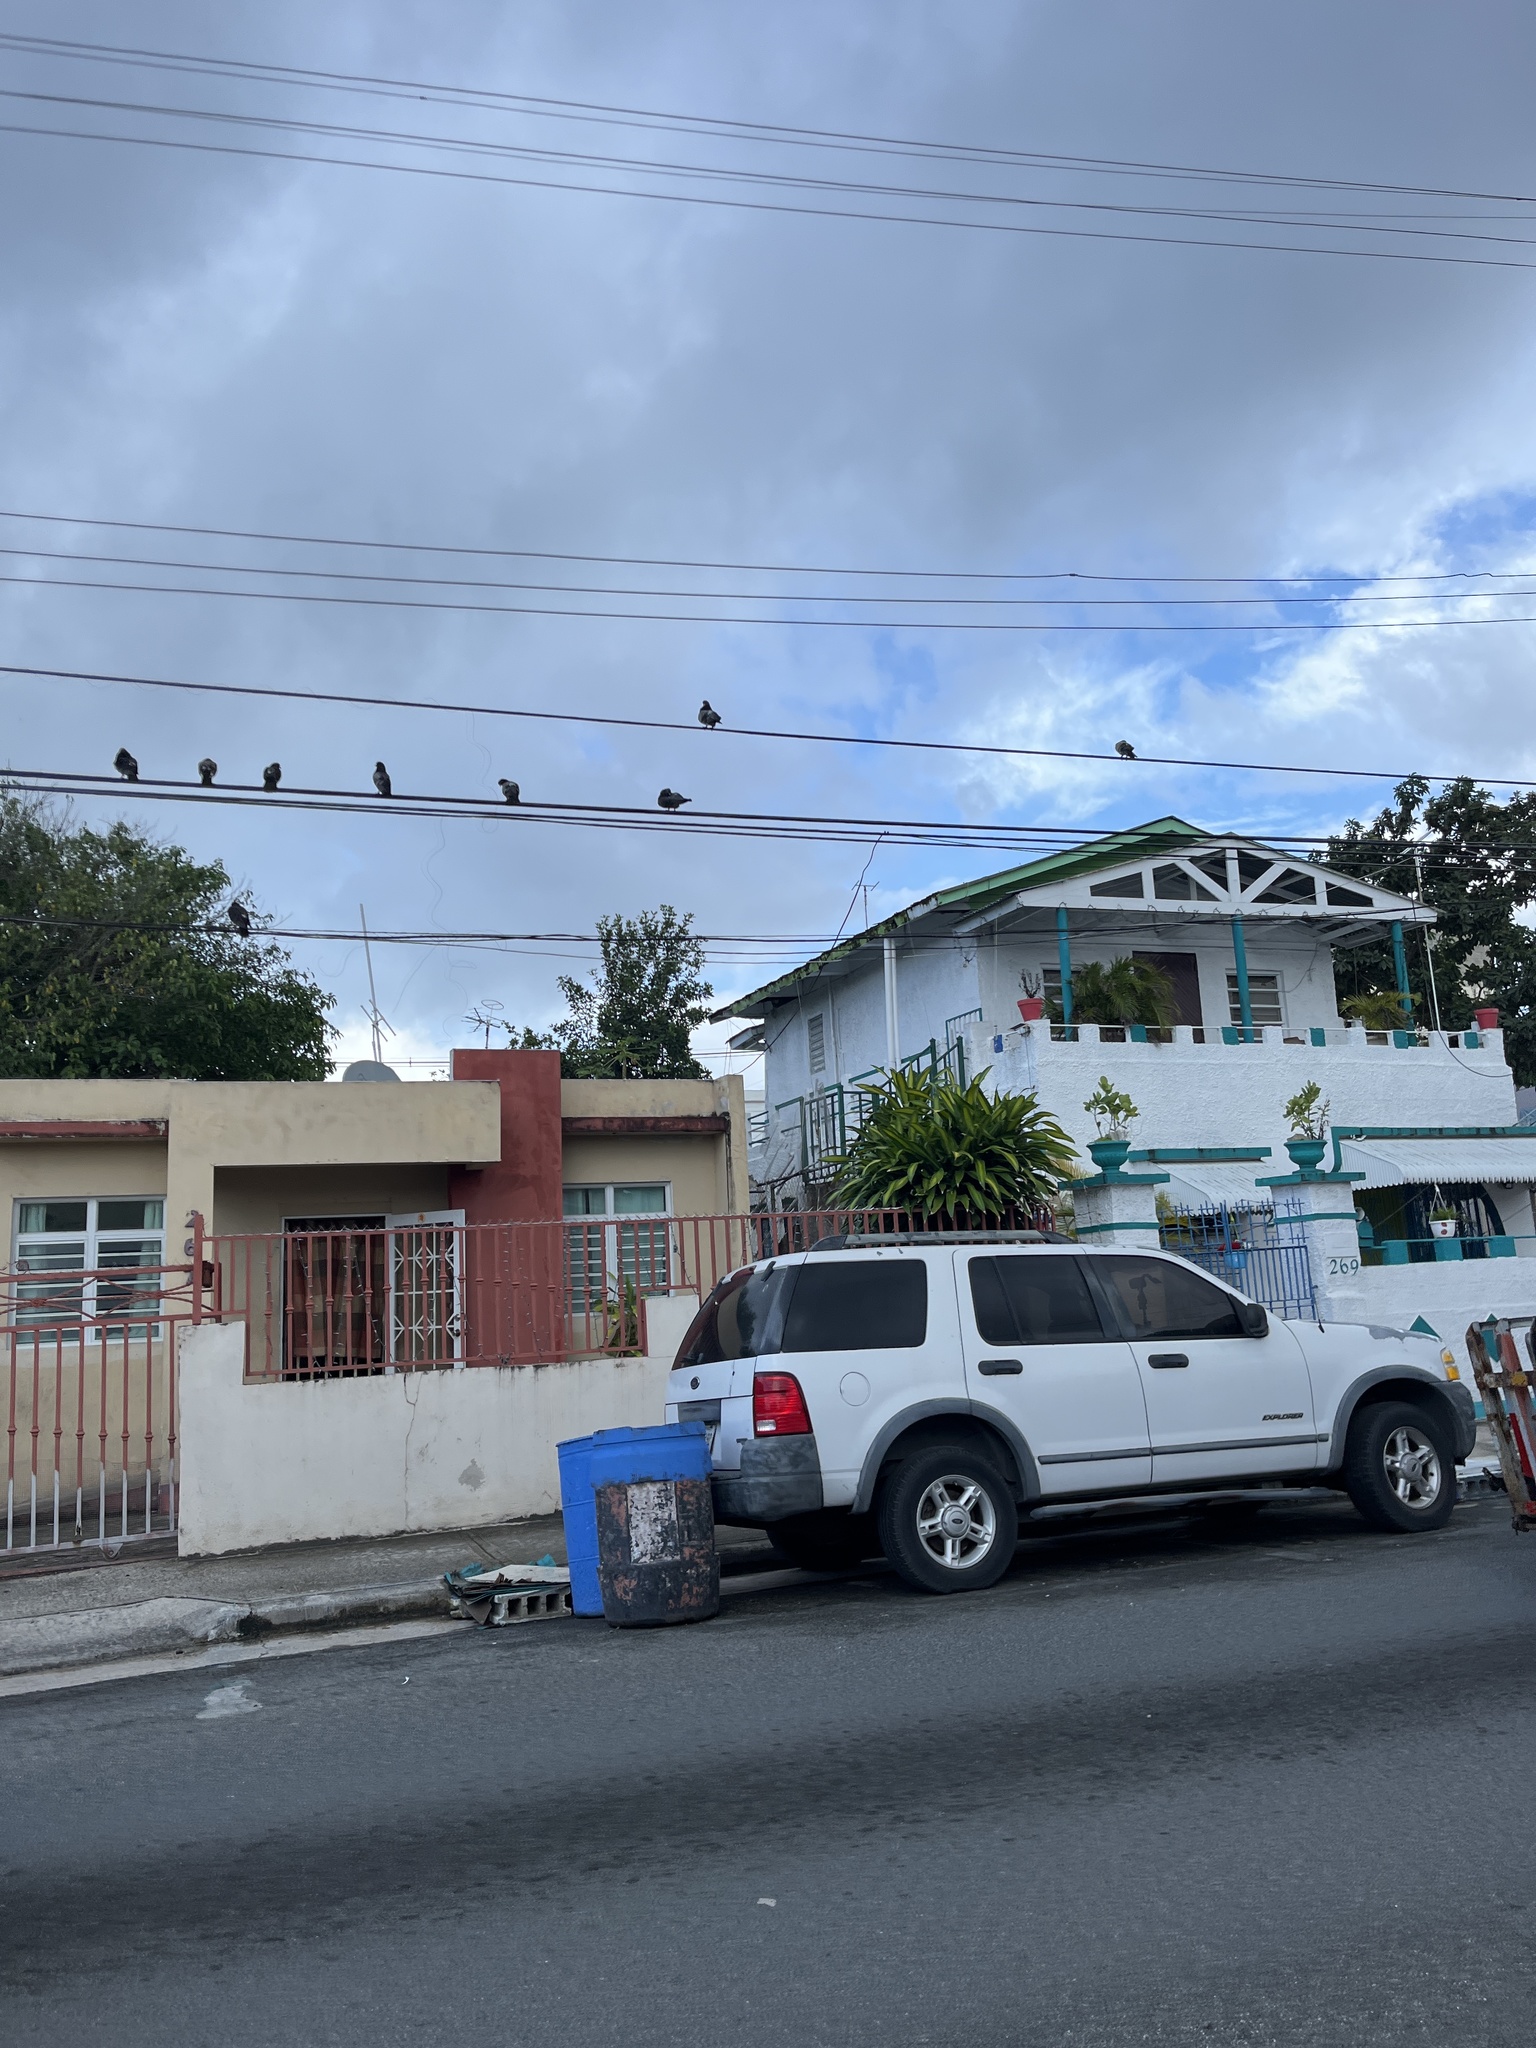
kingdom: Animalia
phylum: Chordata
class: Aves
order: Columbiformes
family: Columbidae
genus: Columba
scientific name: Columba livia
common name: Rock pigeon
